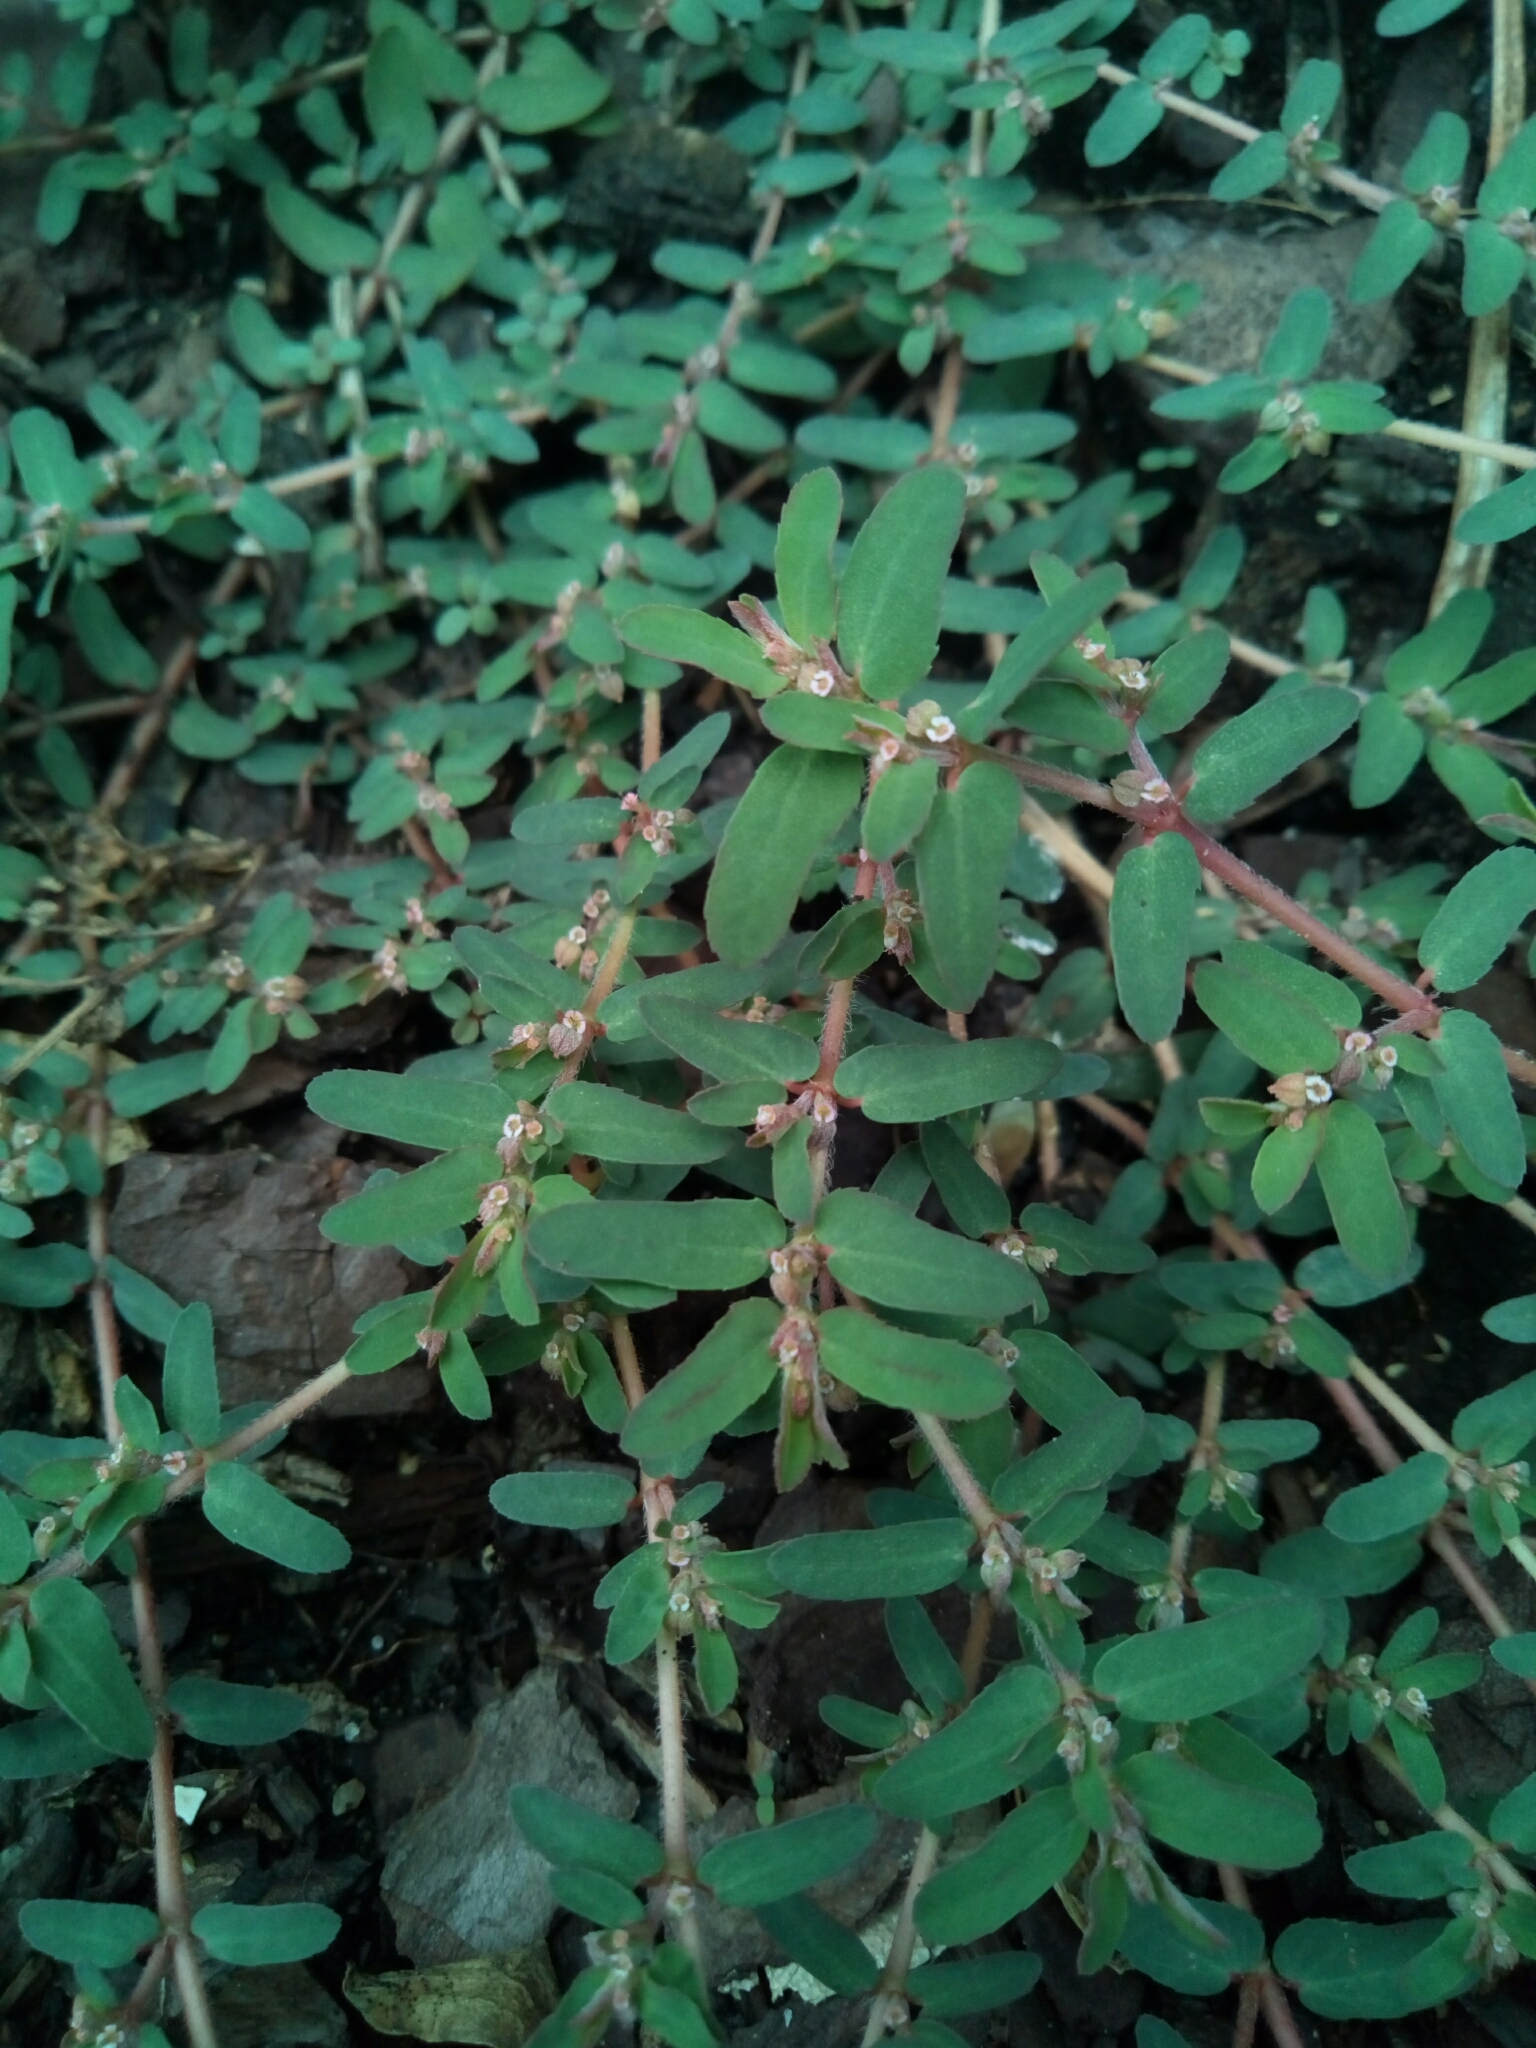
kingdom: Plantae
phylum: Tracheophyta
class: Magnoliopsida
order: Malpighiales
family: Euphorbiaceae
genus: Euphorbia
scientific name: Euphorbia maculata
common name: Spotted spurge
